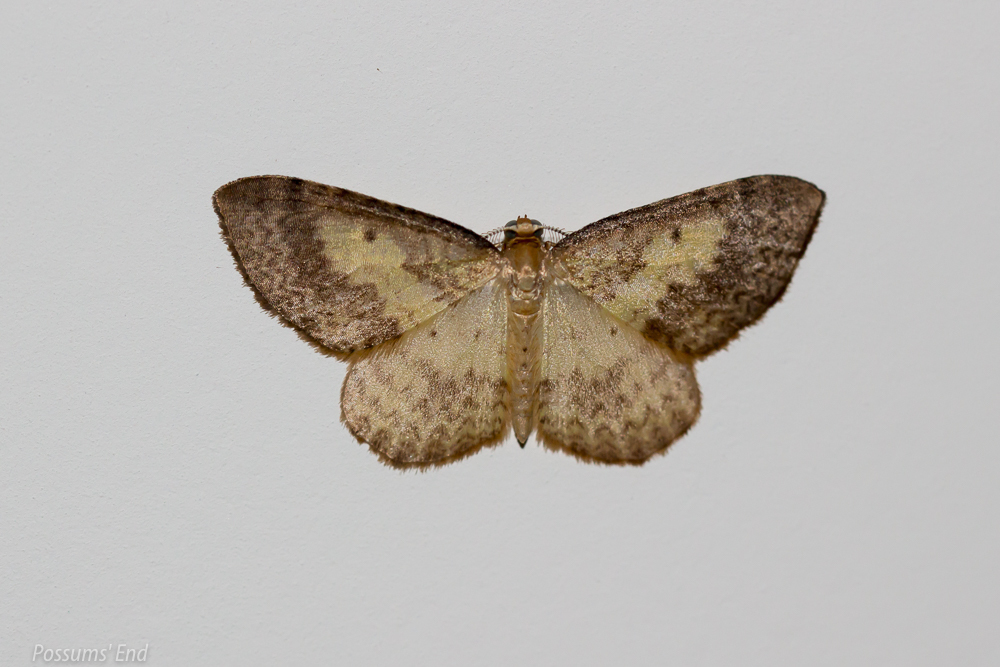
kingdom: Animalia
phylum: Arthropoda
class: Insecta
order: Lepidoptera
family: Geometridae
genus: Epiphryne
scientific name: Epiphryne undosata
